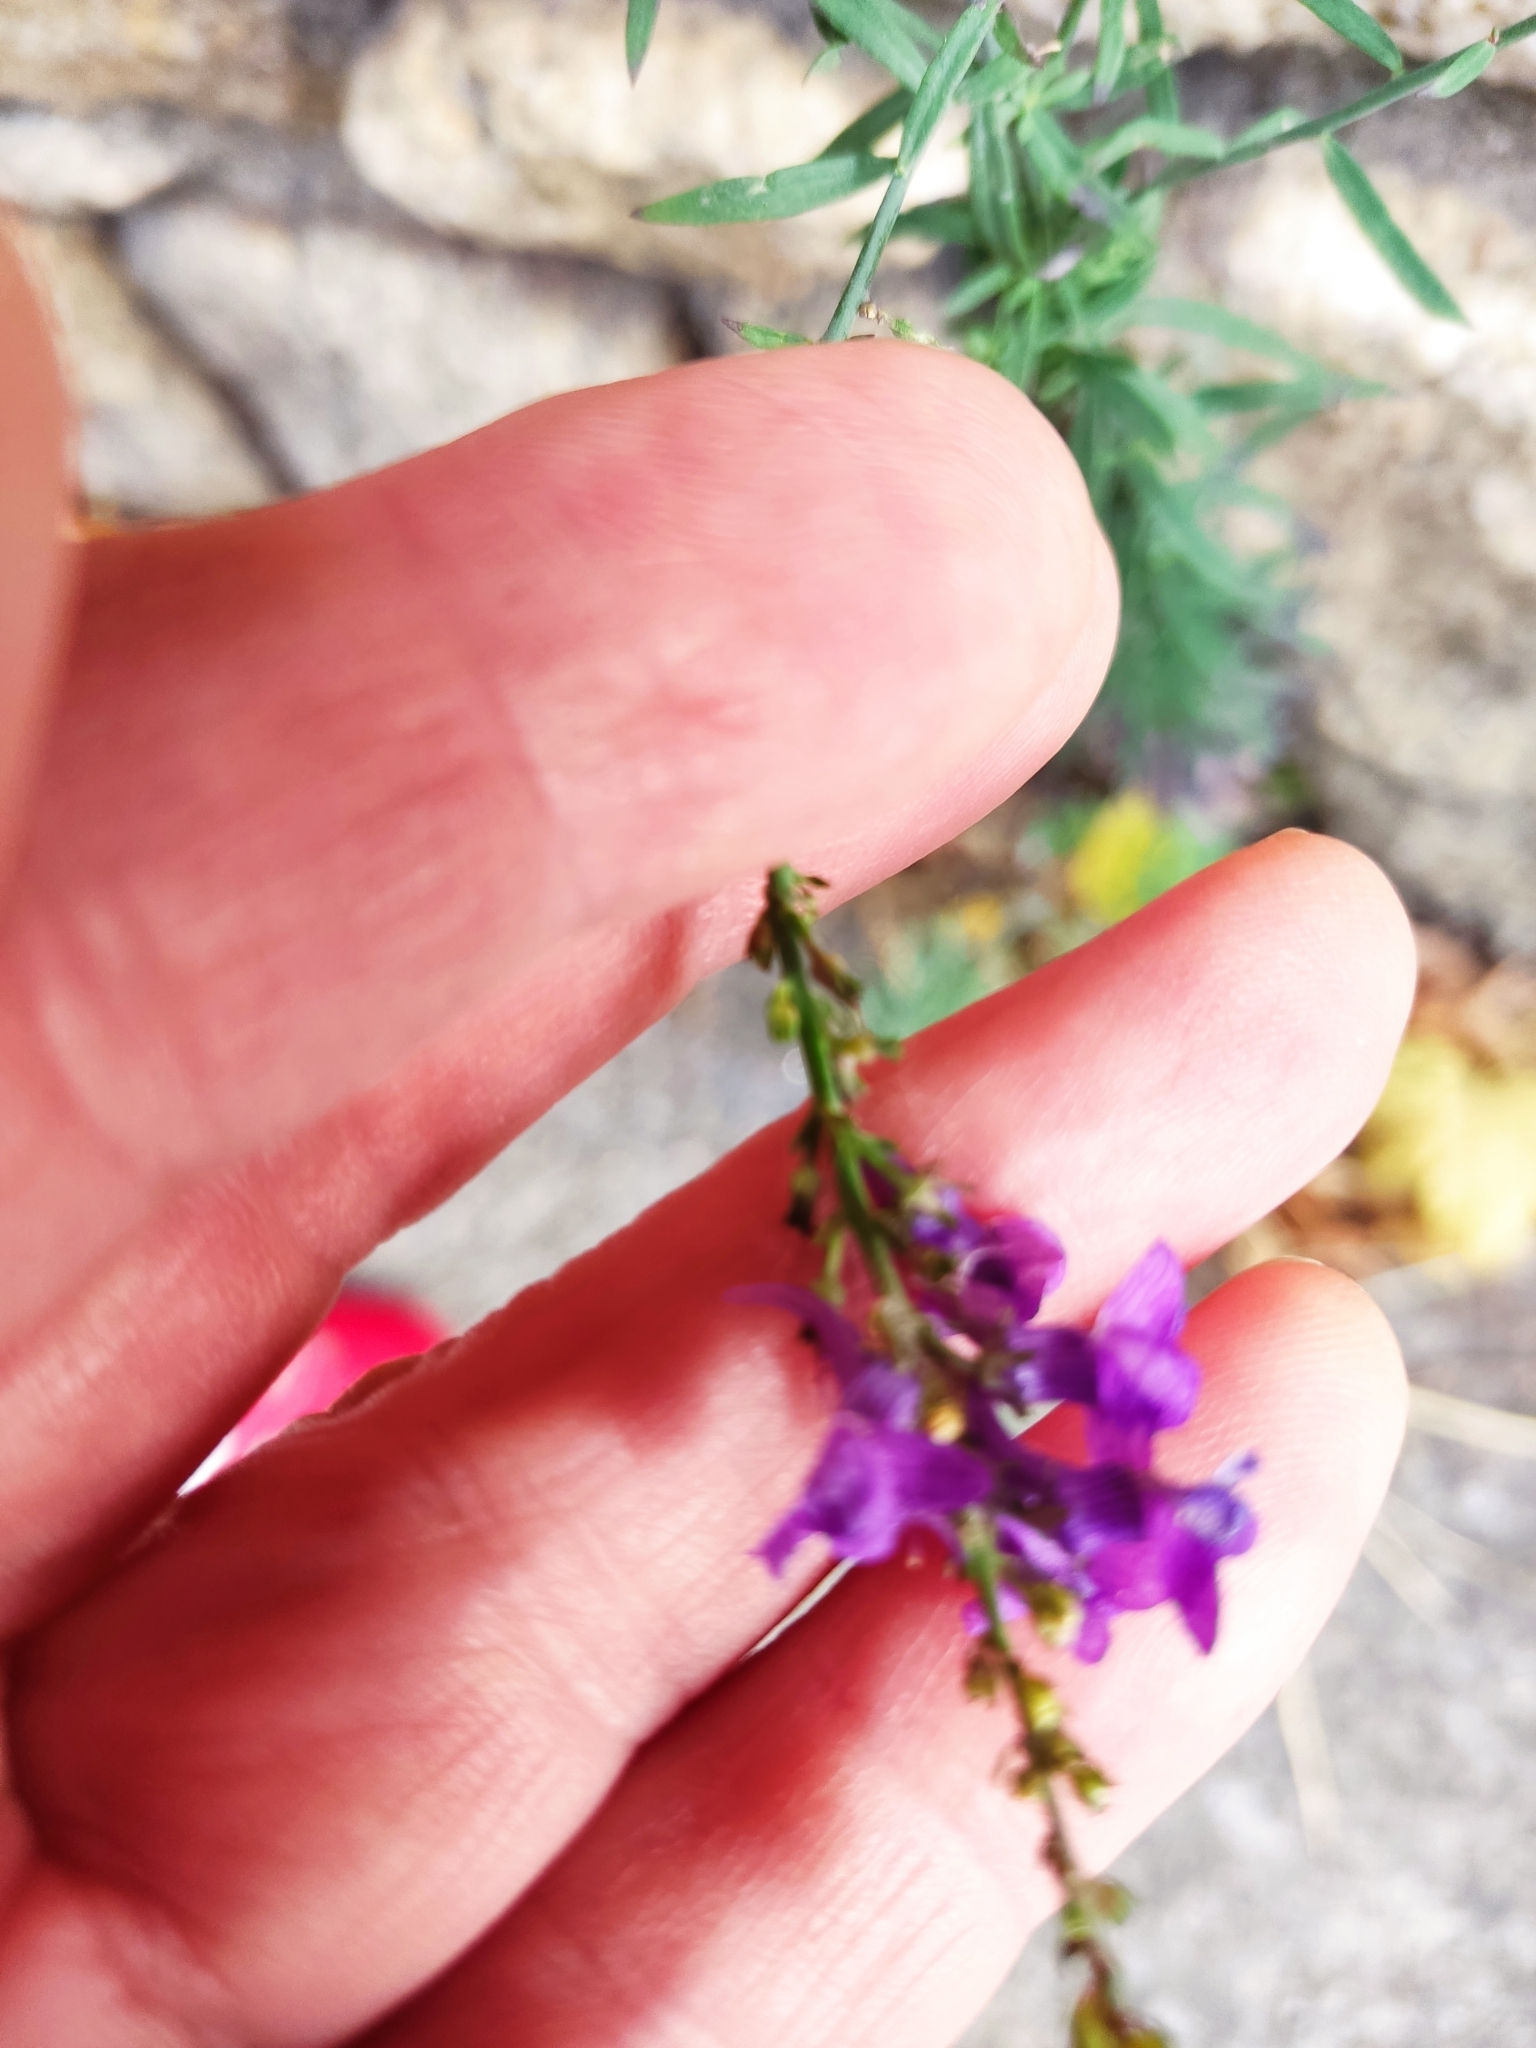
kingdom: Plantae
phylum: Tracheophyta
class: Magnoliopsida
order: Lamiales
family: Plantaginaceae
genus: Linaria
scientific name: Linaria purpurea
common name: Purple toadflax
